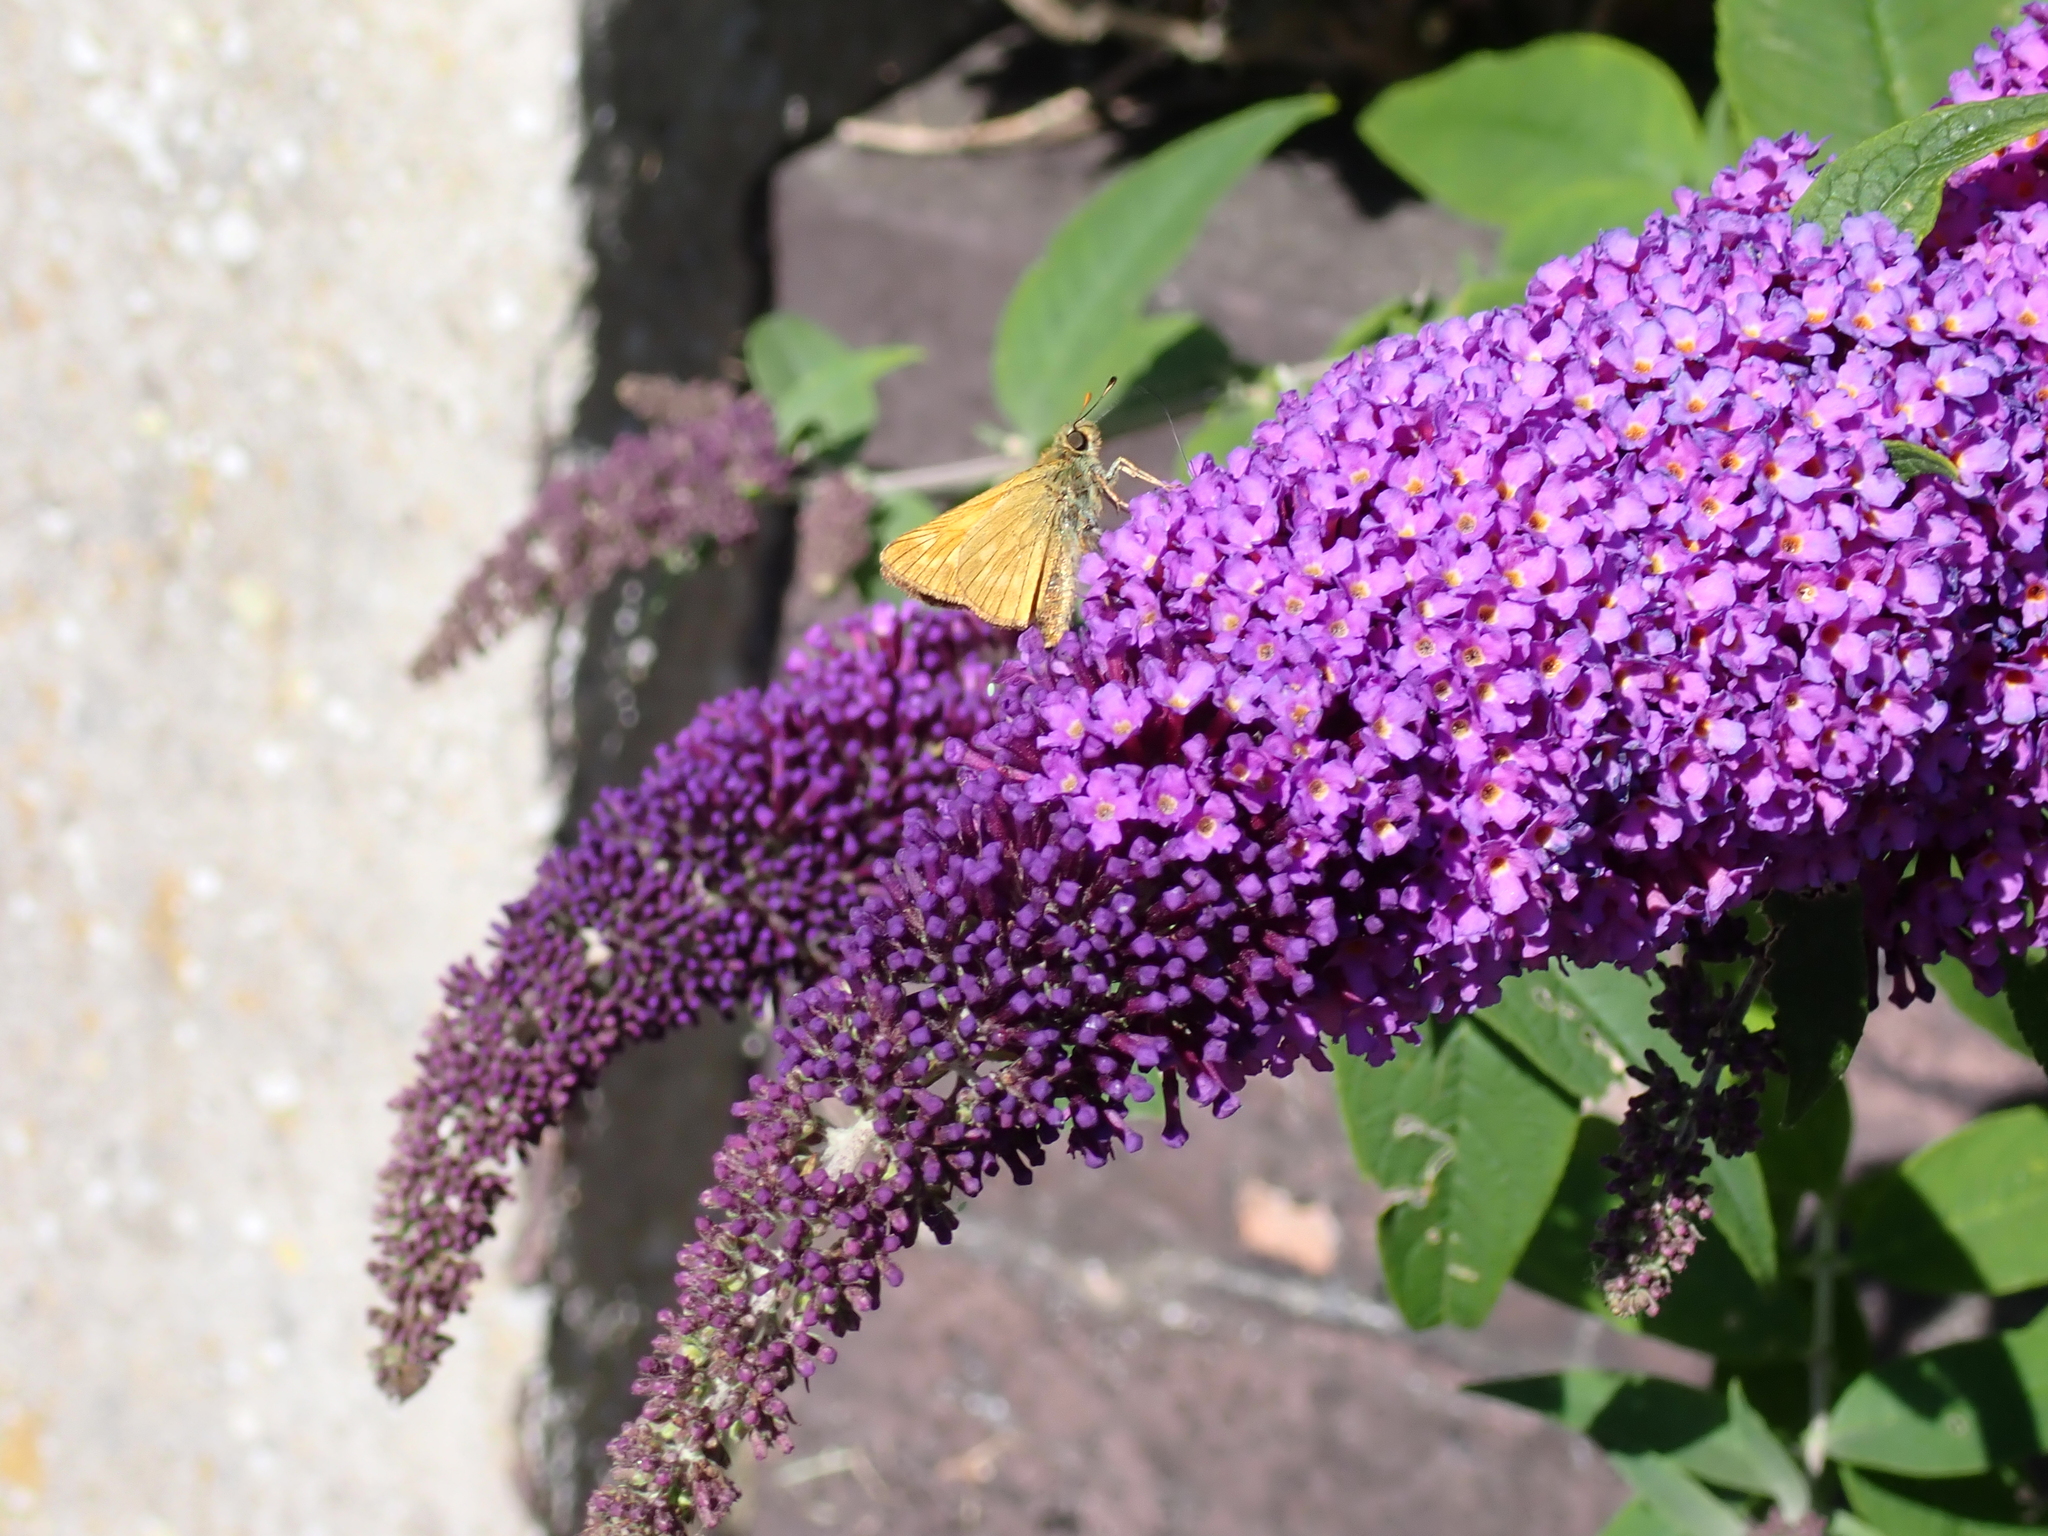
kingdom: Animalia
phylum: Arthropoda
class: Insecta
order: Lepidoptera
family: Hesperiidae
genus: Ochlodes
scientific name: Ochlodes venata
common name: Large skipper
